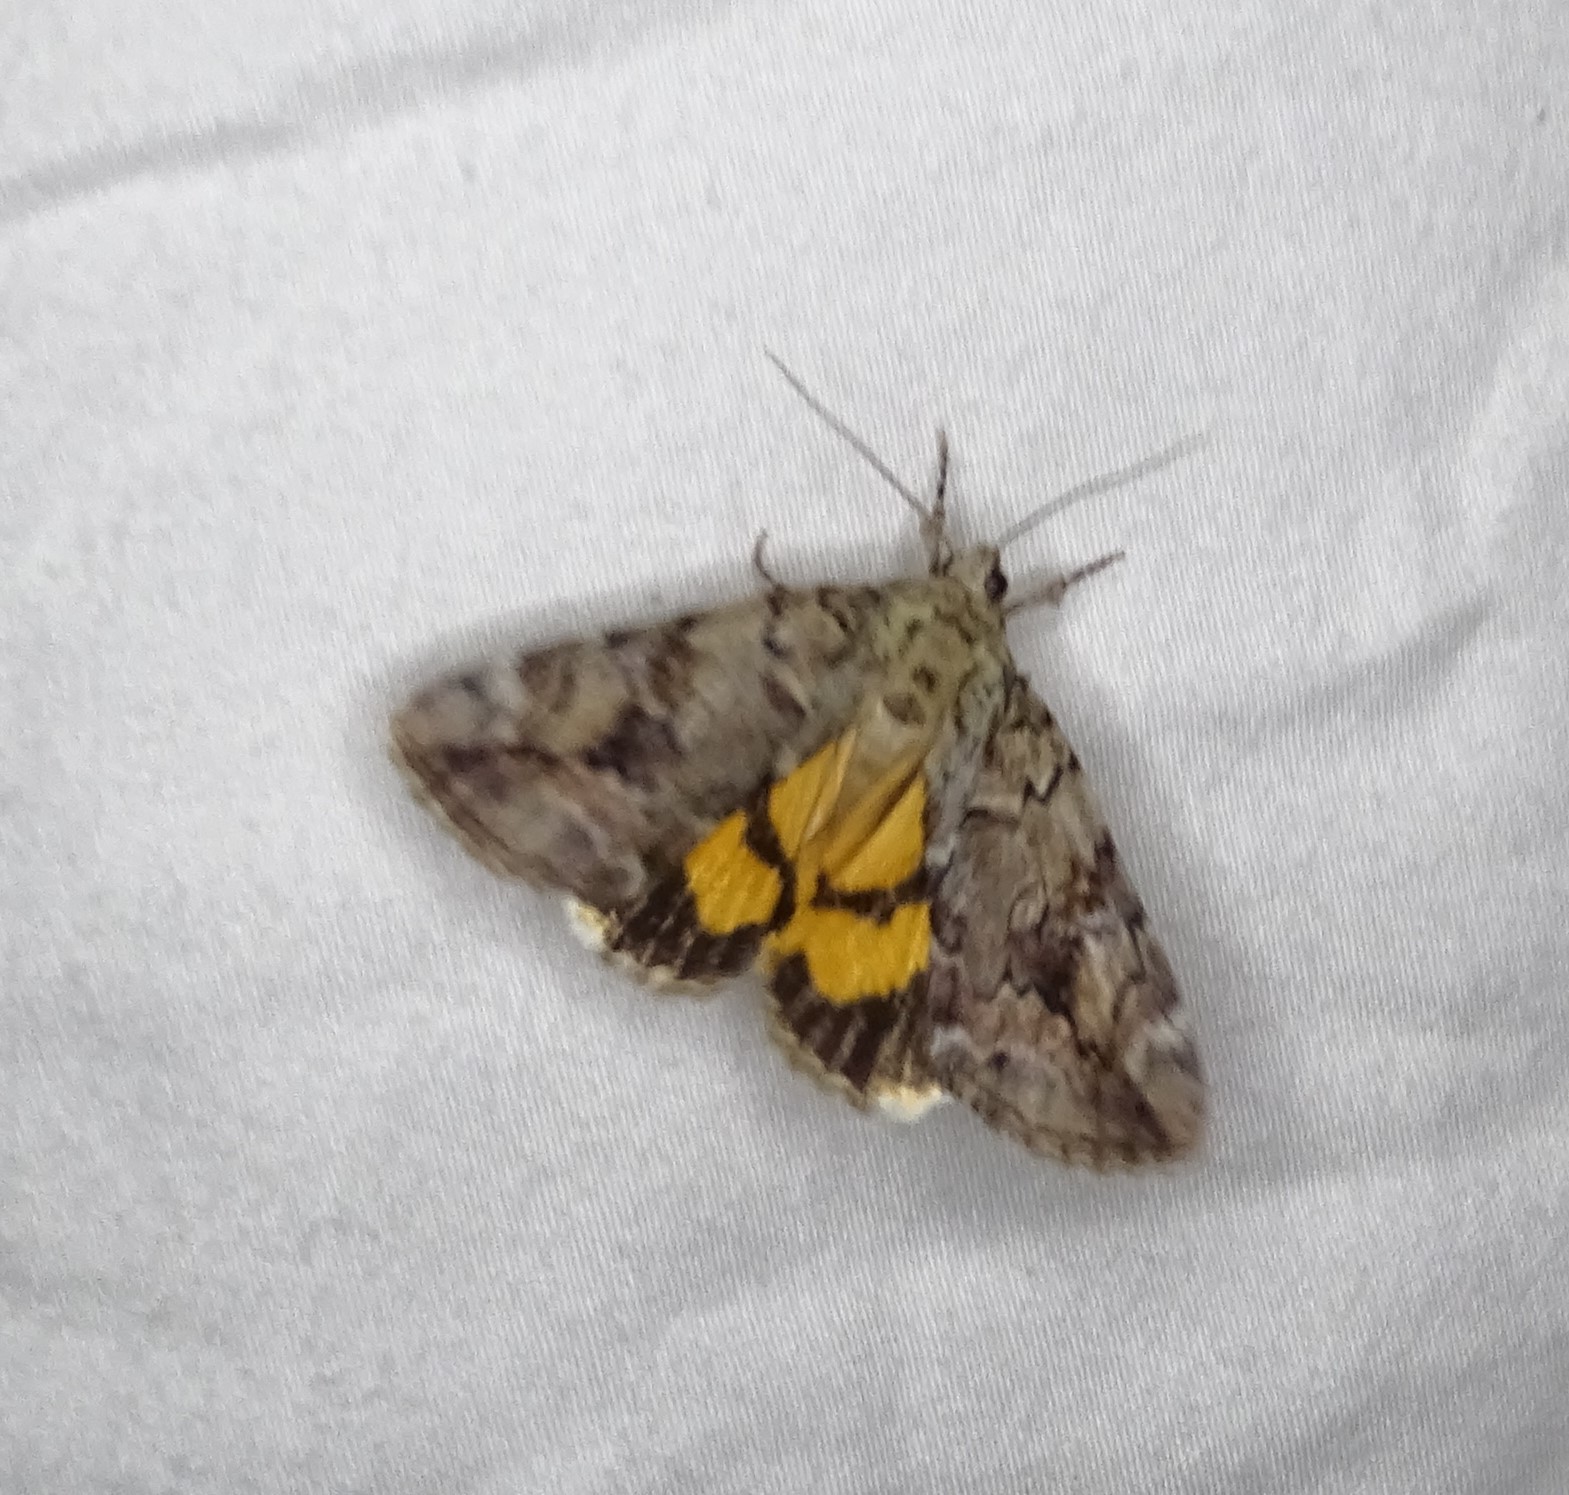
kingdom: Animalia
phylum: Arthropoda
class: Insecta
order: Lepidoptera
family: Erebidae
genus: Catocala
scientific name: Catocala micronympha
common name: Little nymph underwing
